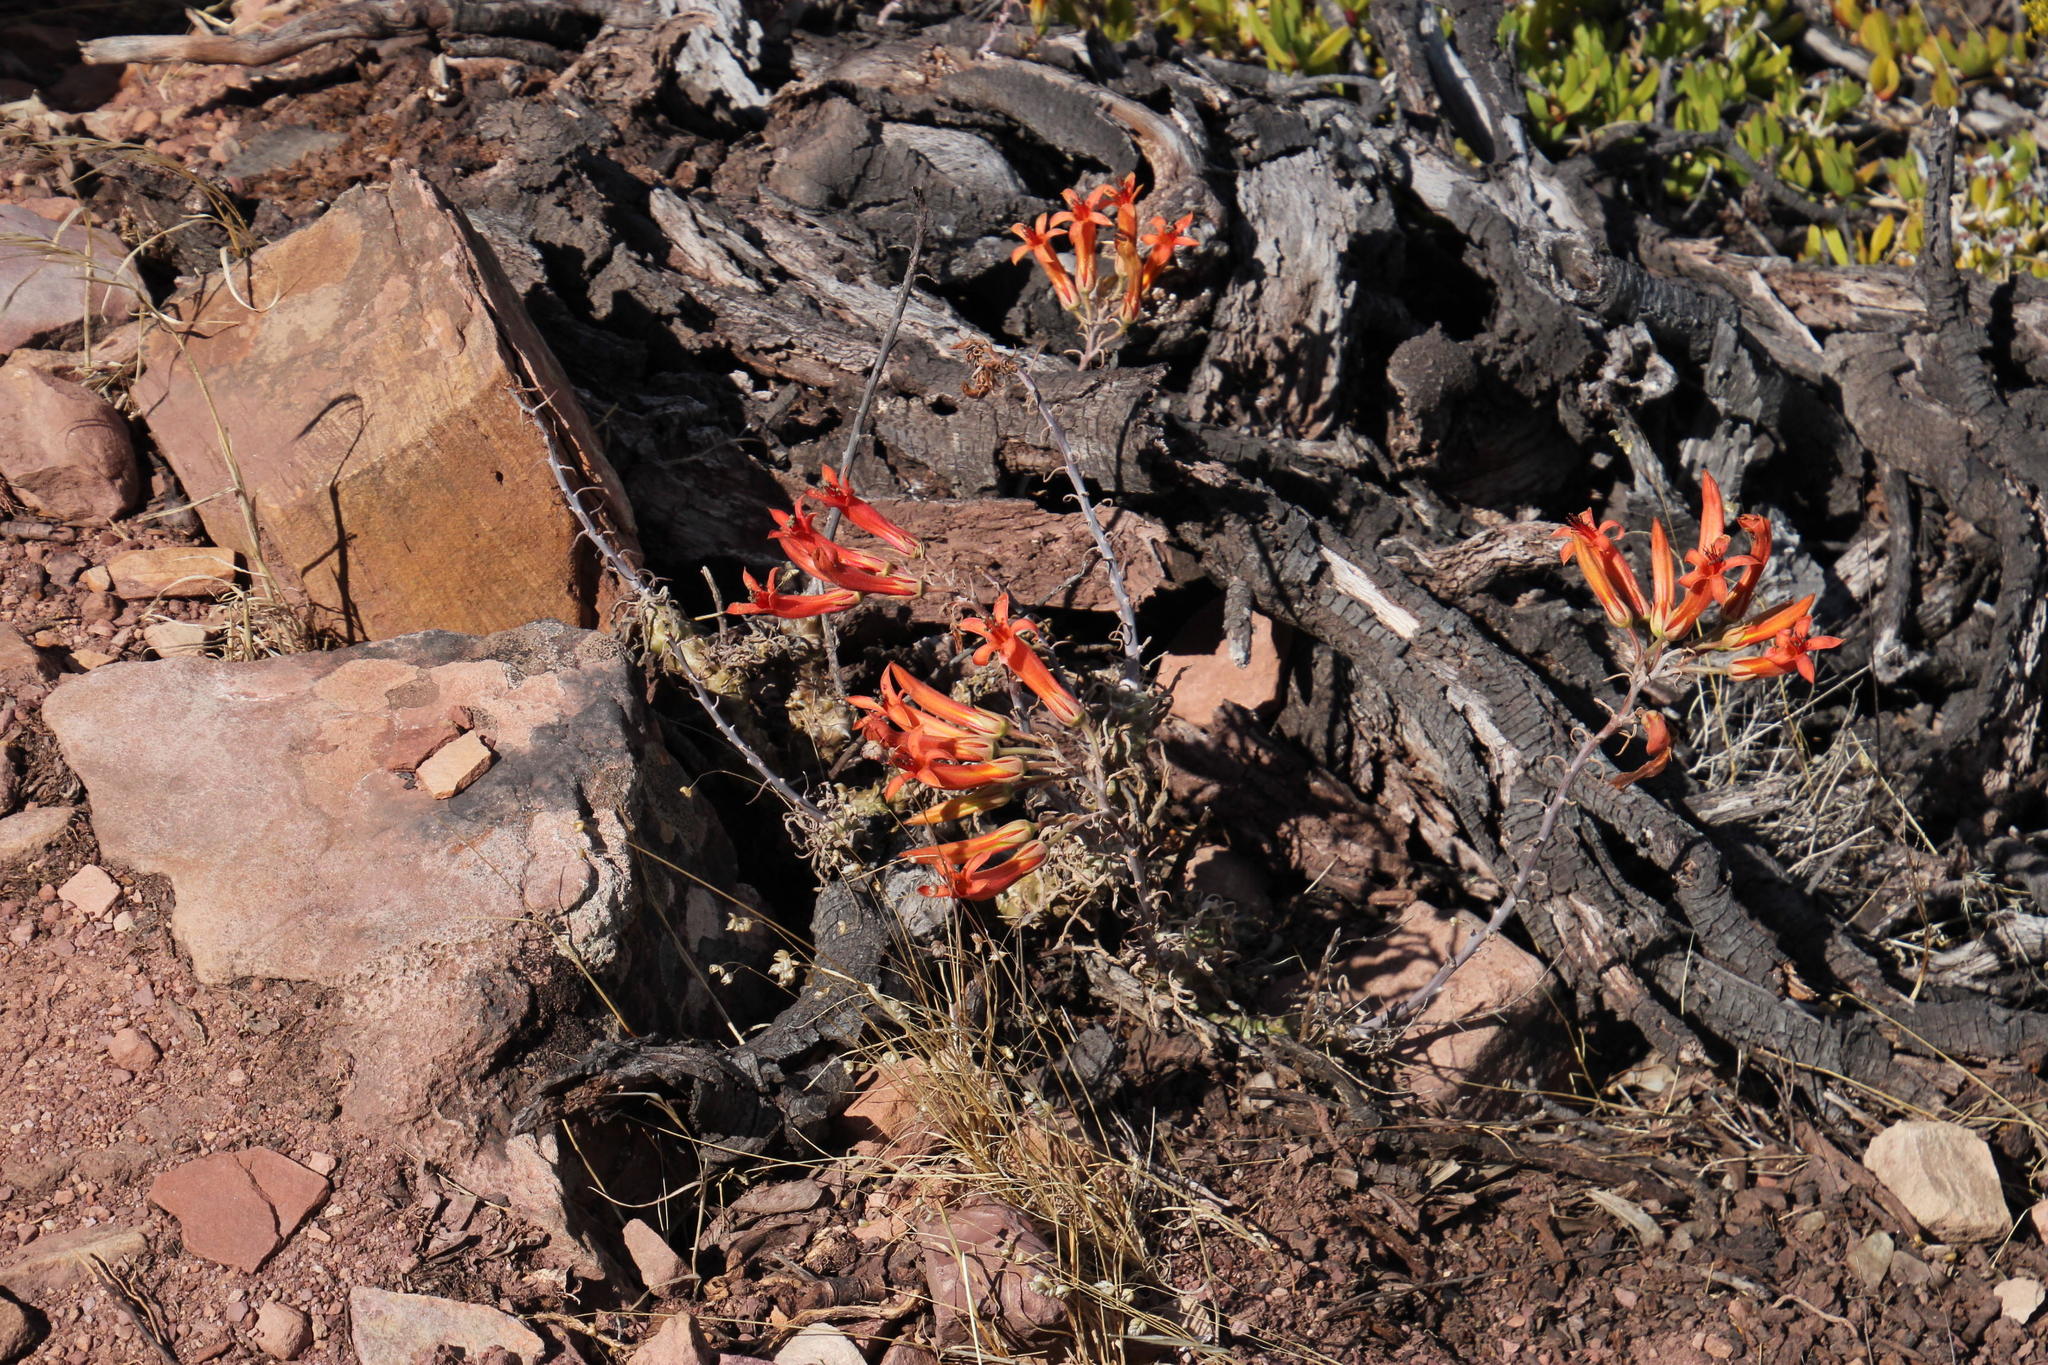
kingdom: Plantae
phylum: Tracheophyta
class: Magnoliopsida
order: Saxifragales
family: Crassulaceae
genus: Tylecodon
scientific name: Tylecodon grandiflorus
